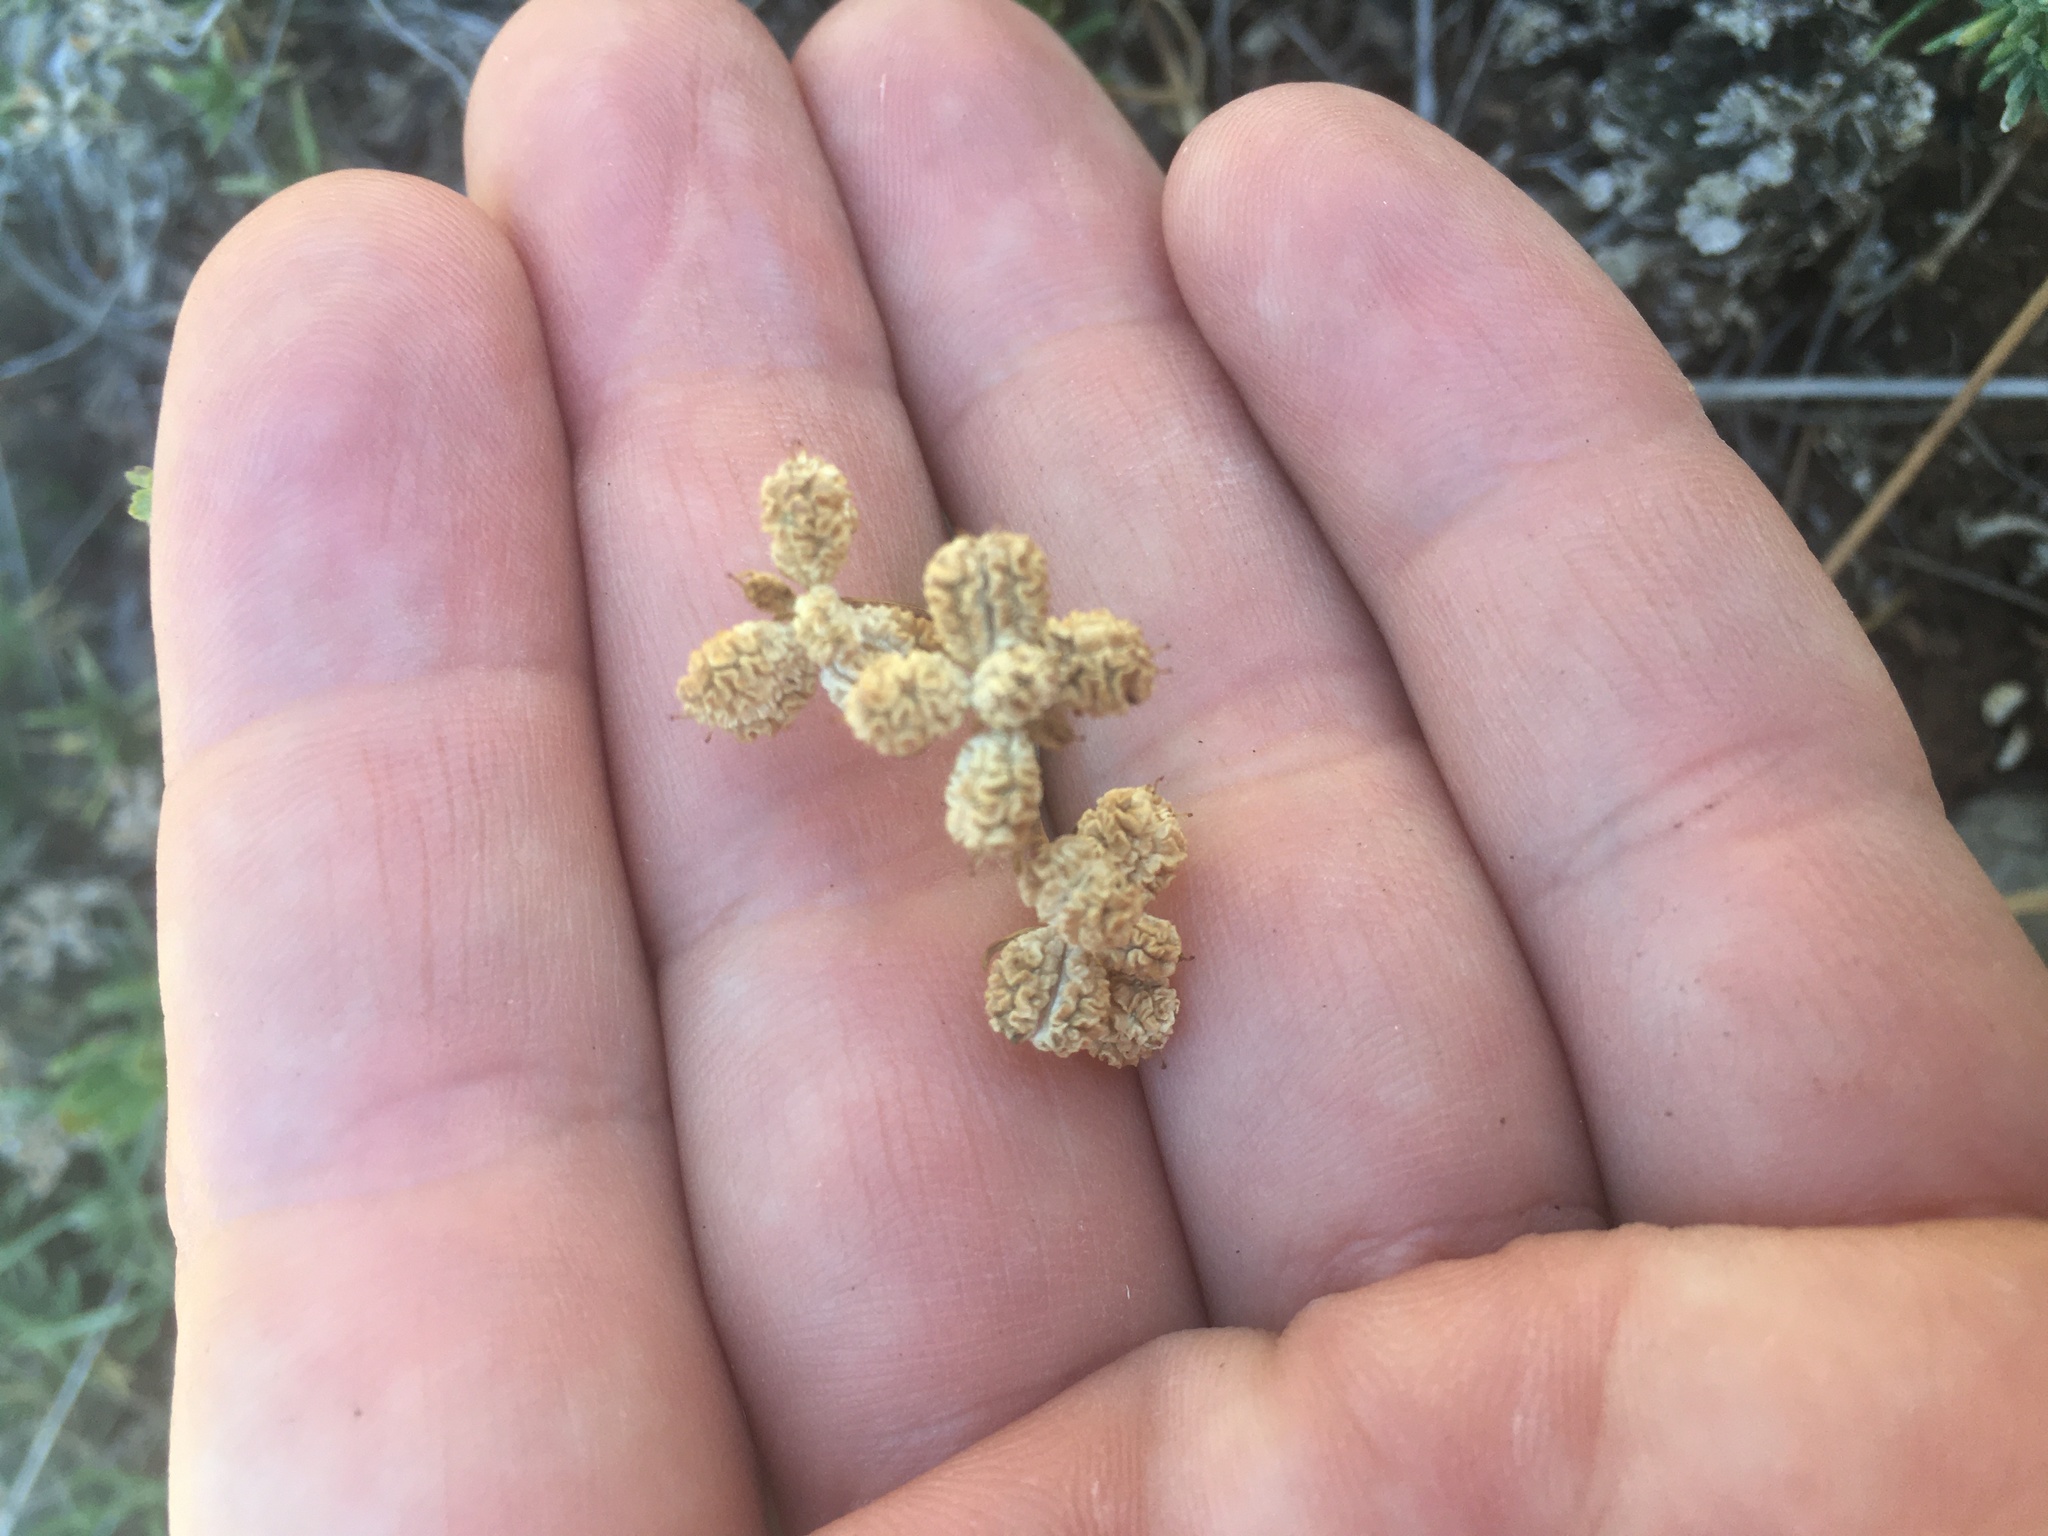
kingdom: Plantae
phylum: Tracheophyta
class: Magnoliopsida
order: Apiales
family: Apiaceae
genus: Trinia
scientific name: Trinia crithmifolia
